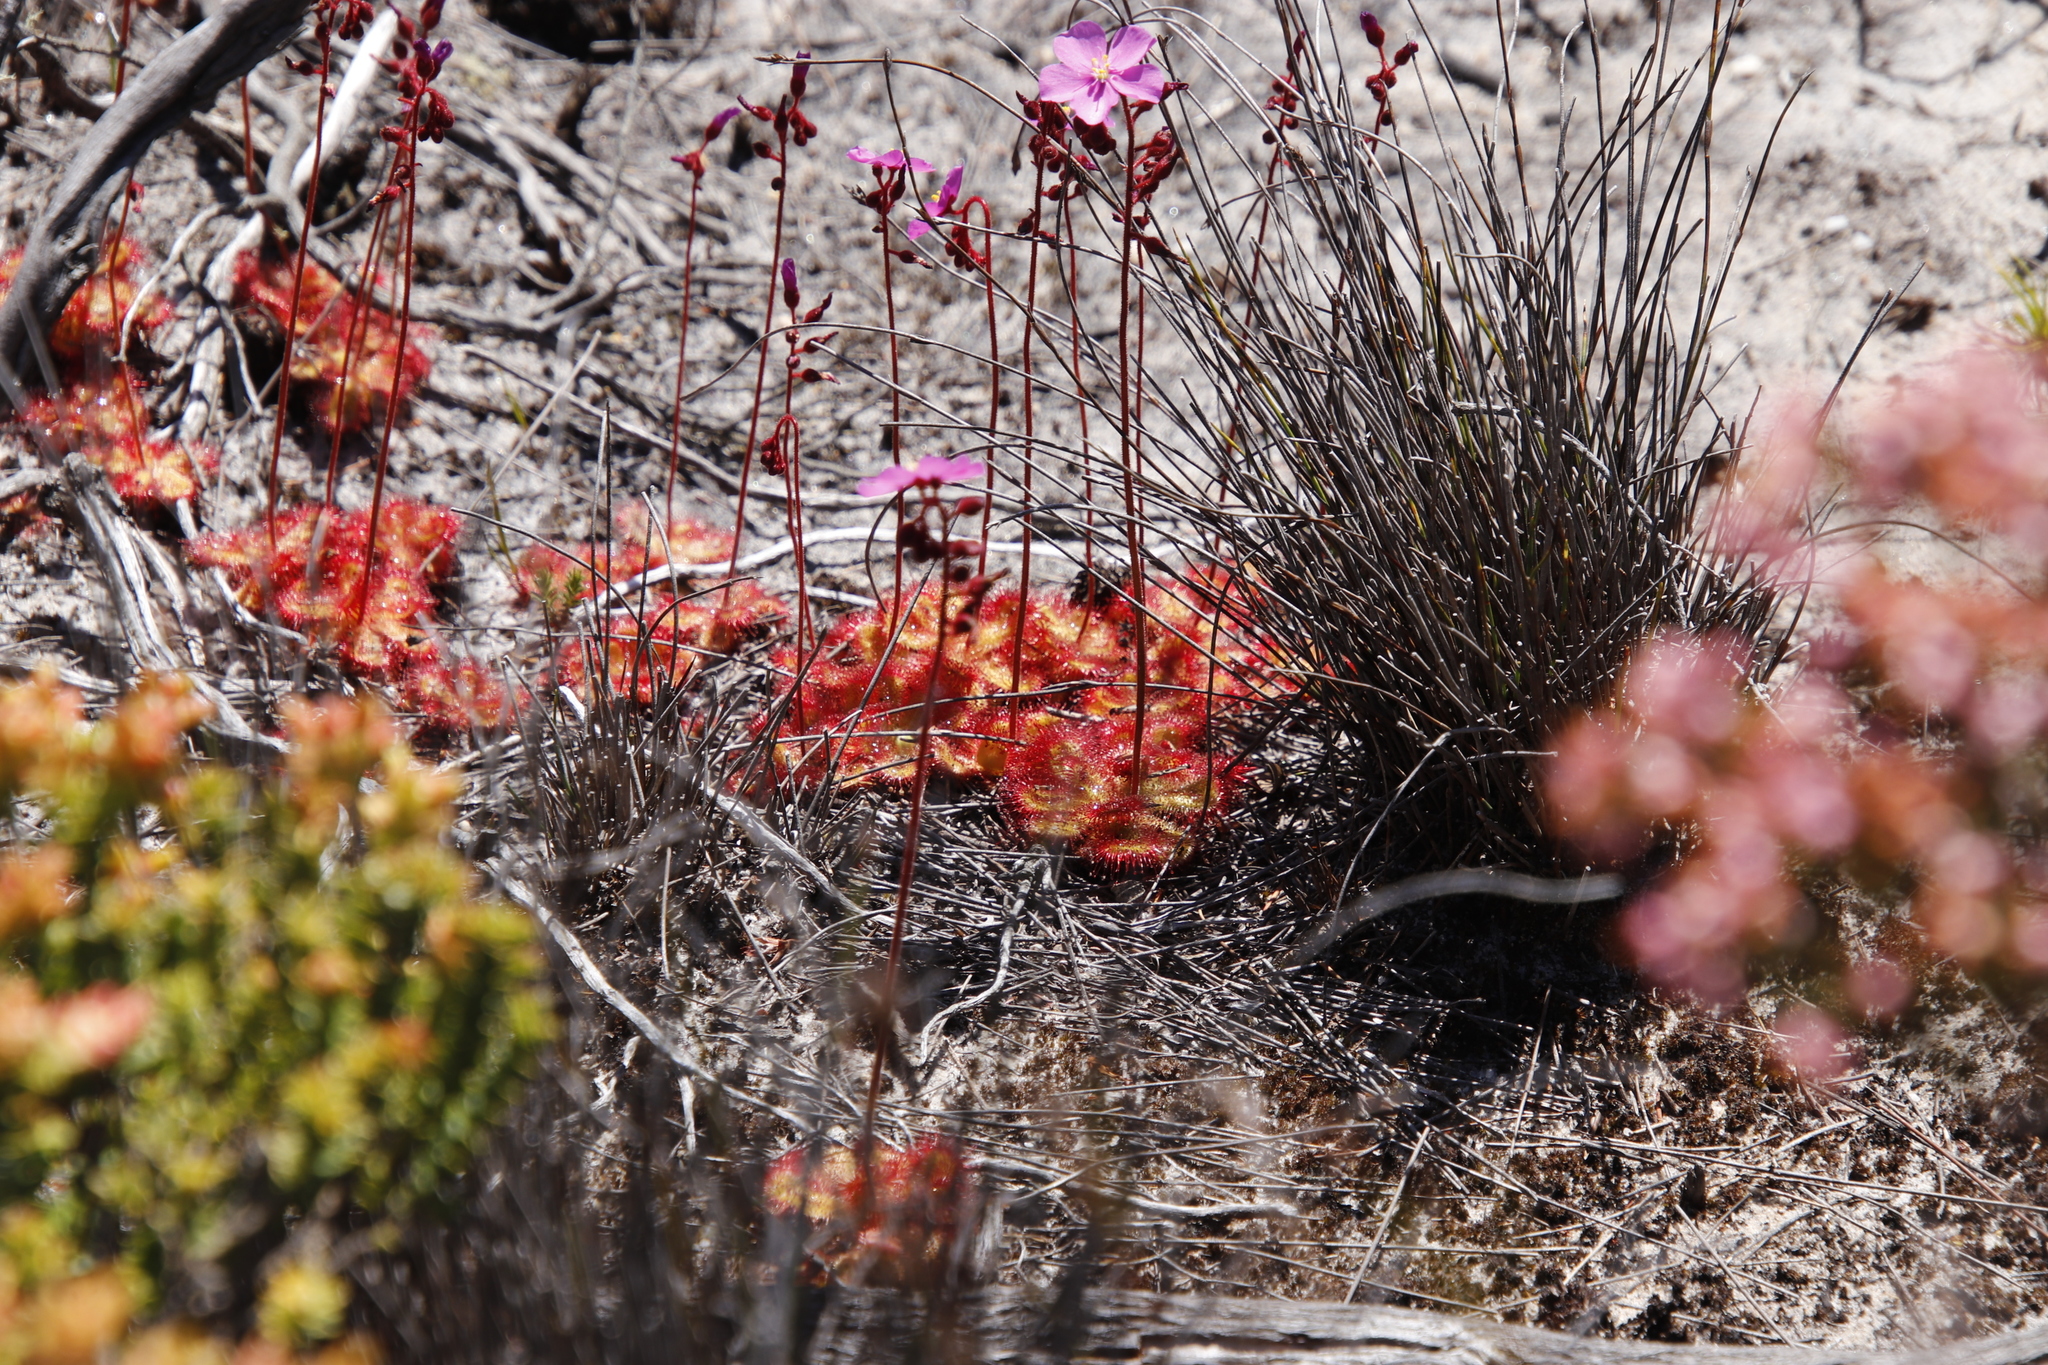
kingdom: Plantae
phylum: Tracheophyta
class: Magnoliopsida
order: Caryophyllales
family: Droseraceae
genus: Drosera
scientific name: Drosera cuneifolia
